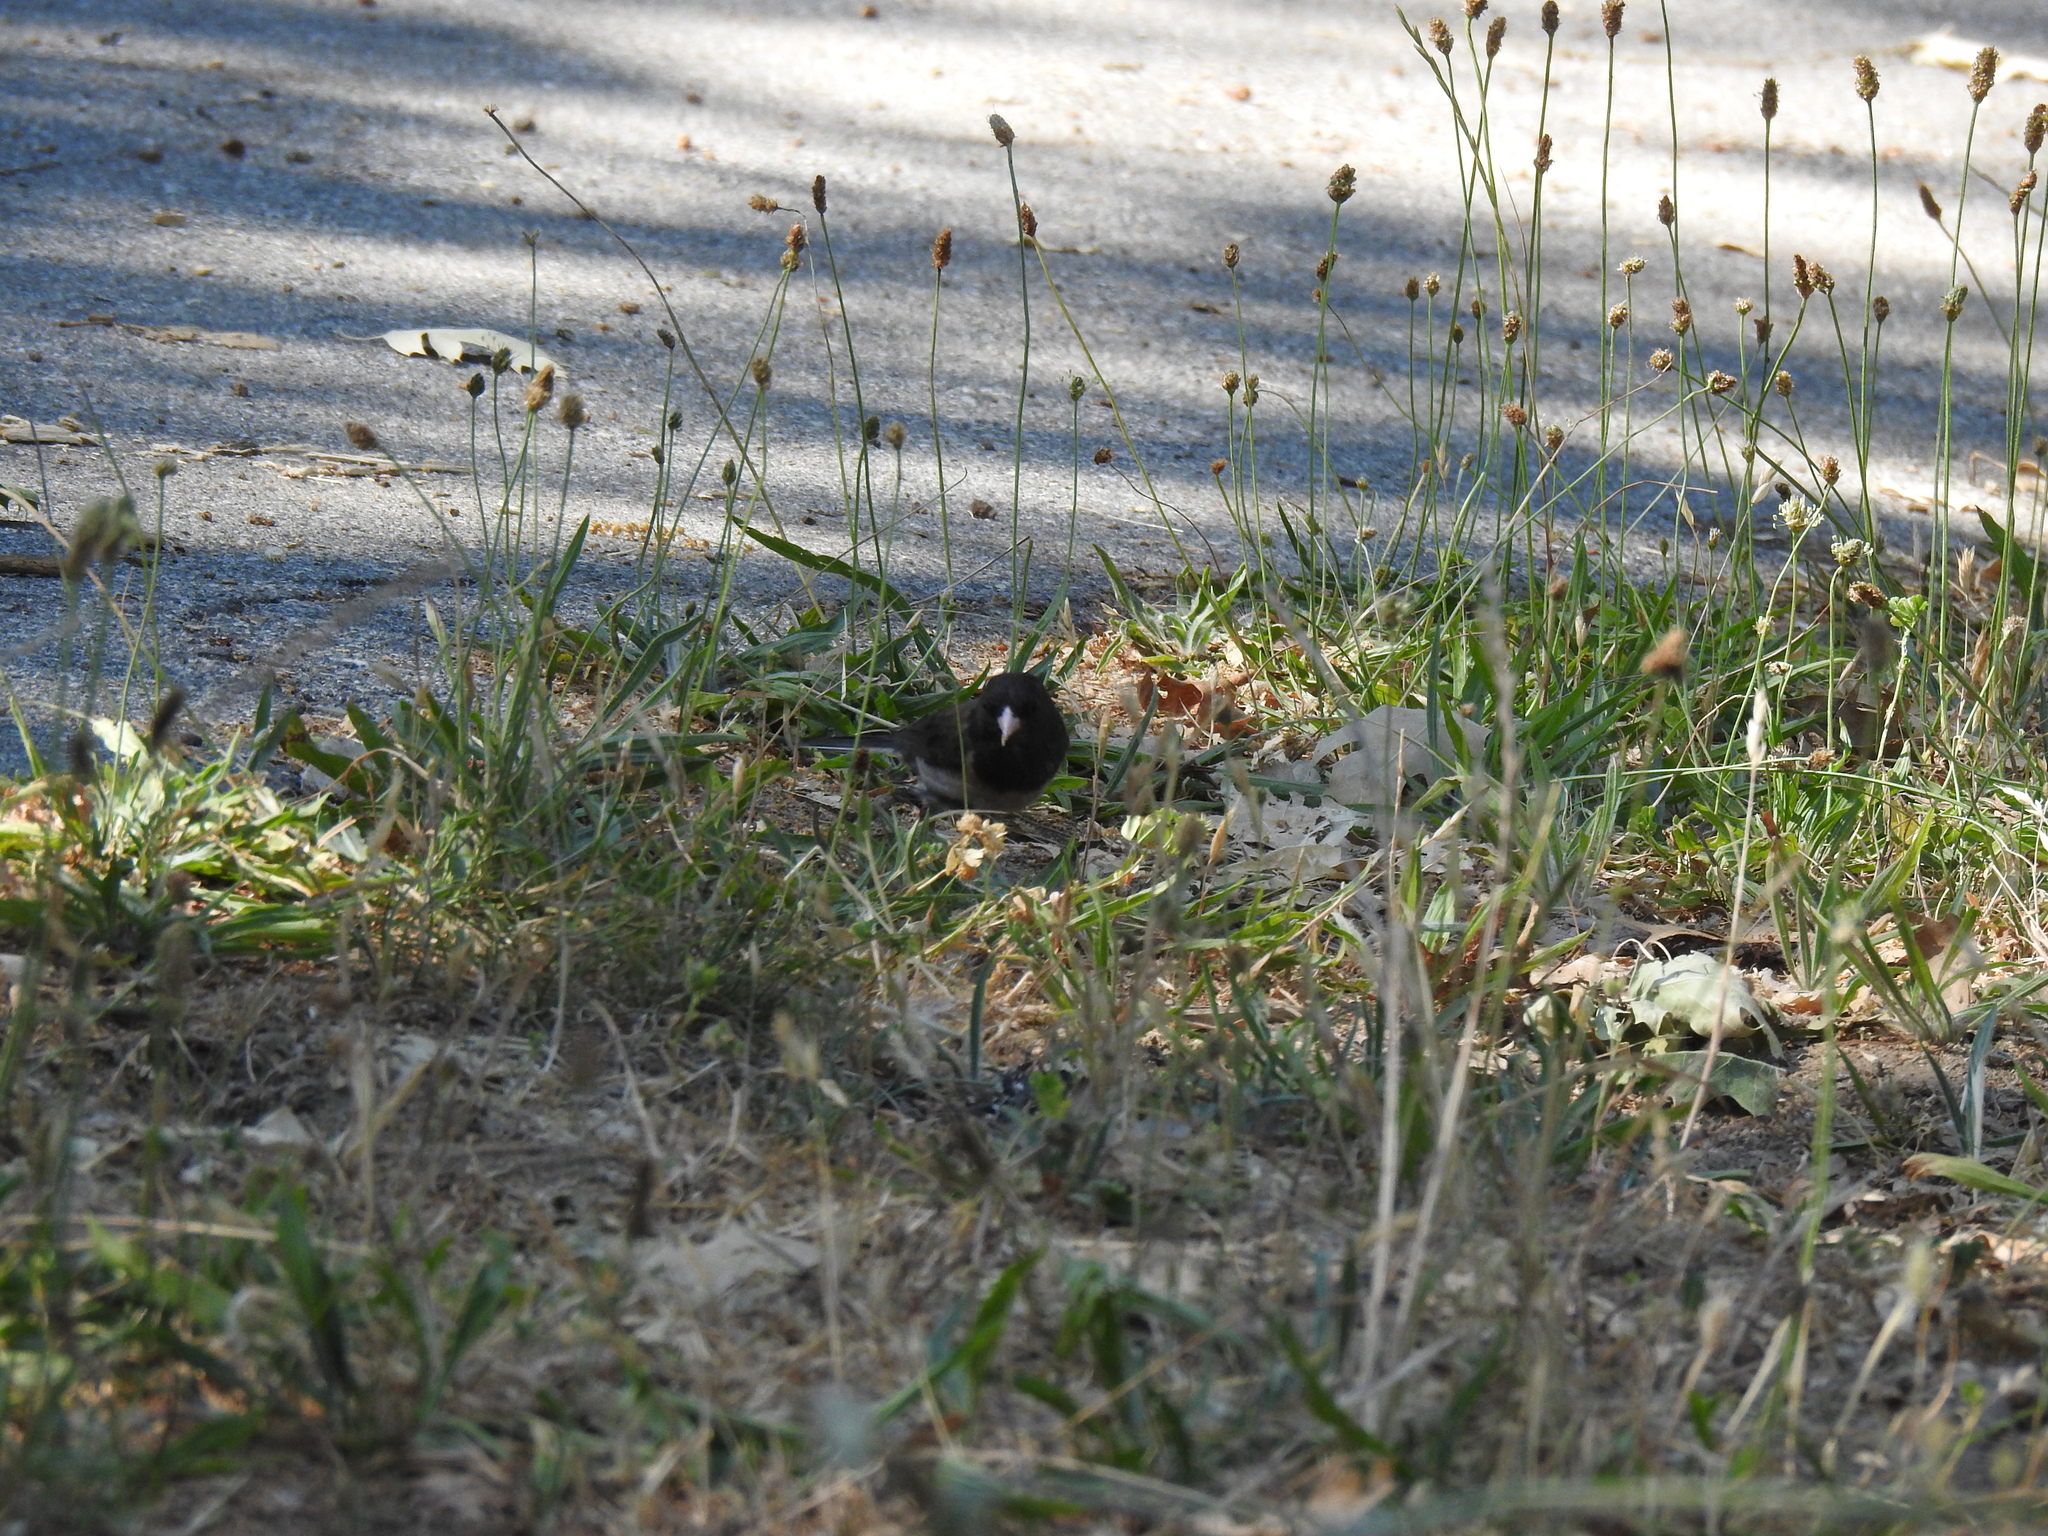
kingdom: Animalia
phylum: Chordata
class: Aves
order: Passeriformes
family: Passerellidae
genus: Junco
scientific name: Junco hyemalis
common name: Dark-eyed junco
